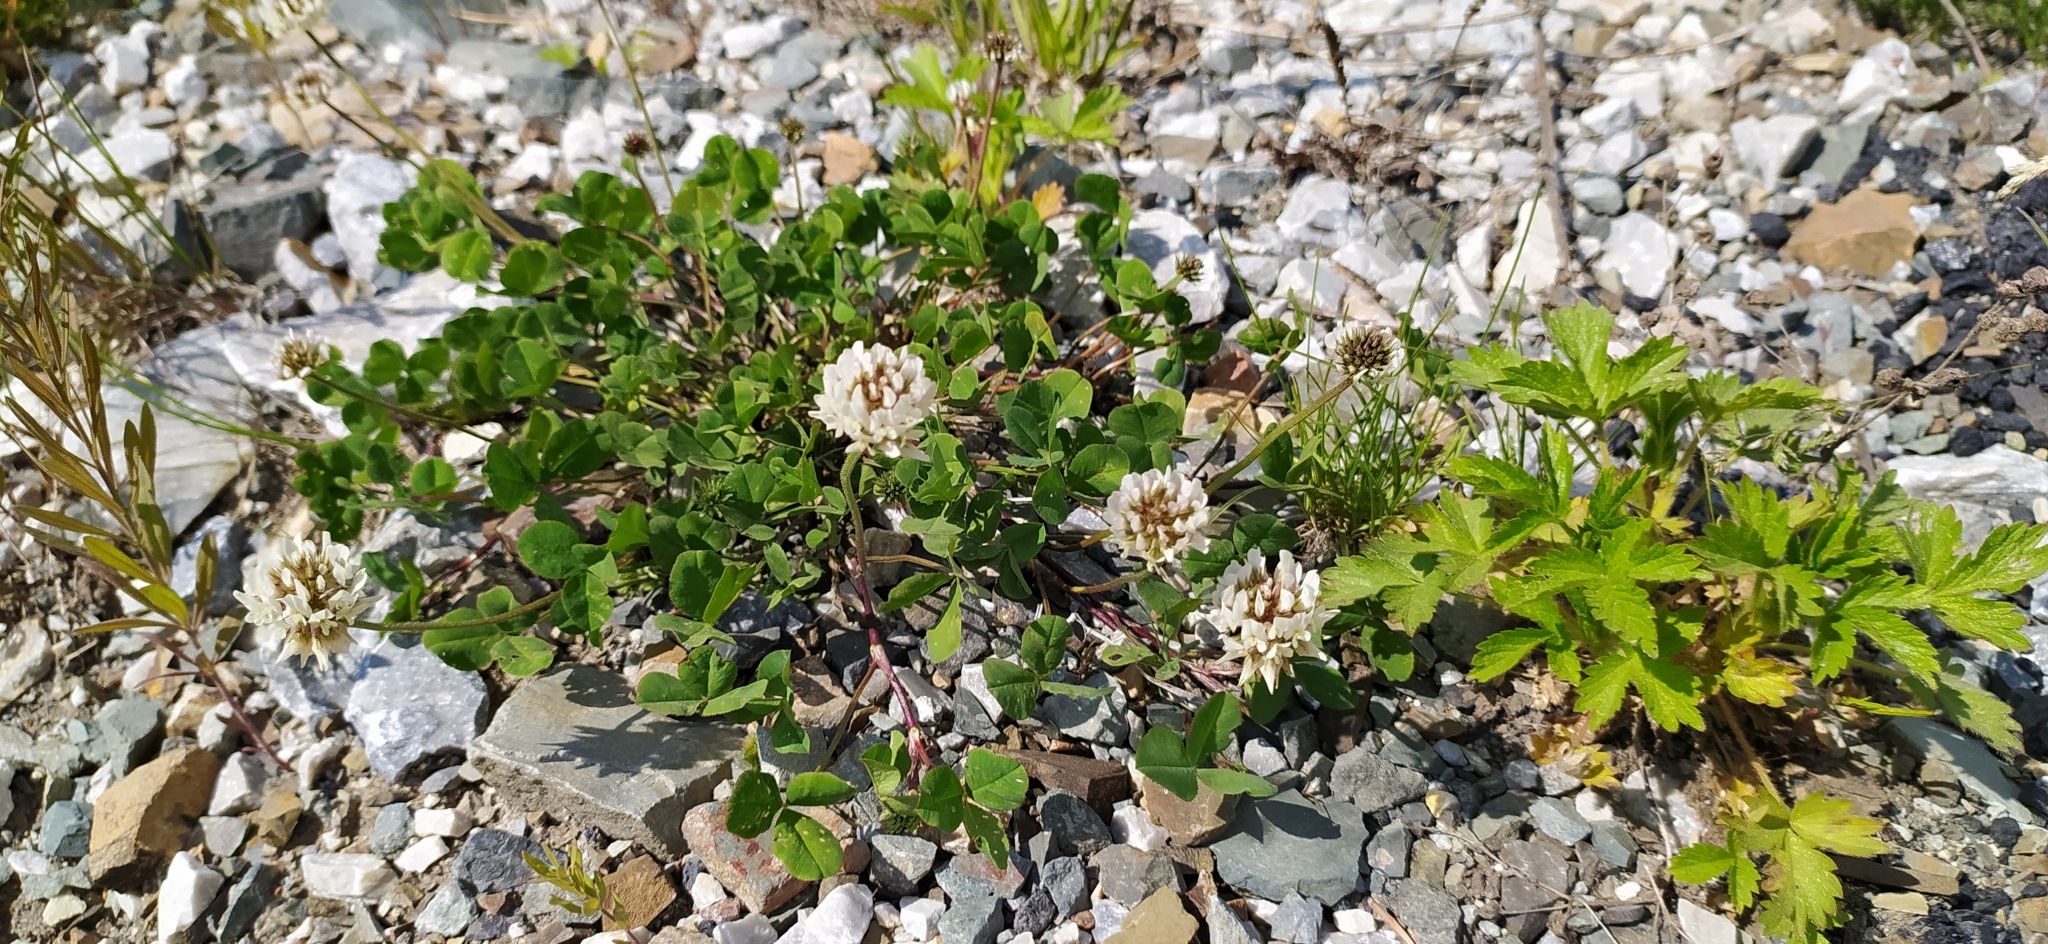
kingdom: Plantae
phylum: Tracheophyta
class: Magnoliopsida
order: Fabales
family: Fabaceae
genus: Trifolium
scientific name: Trifolium repens
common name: White clover
